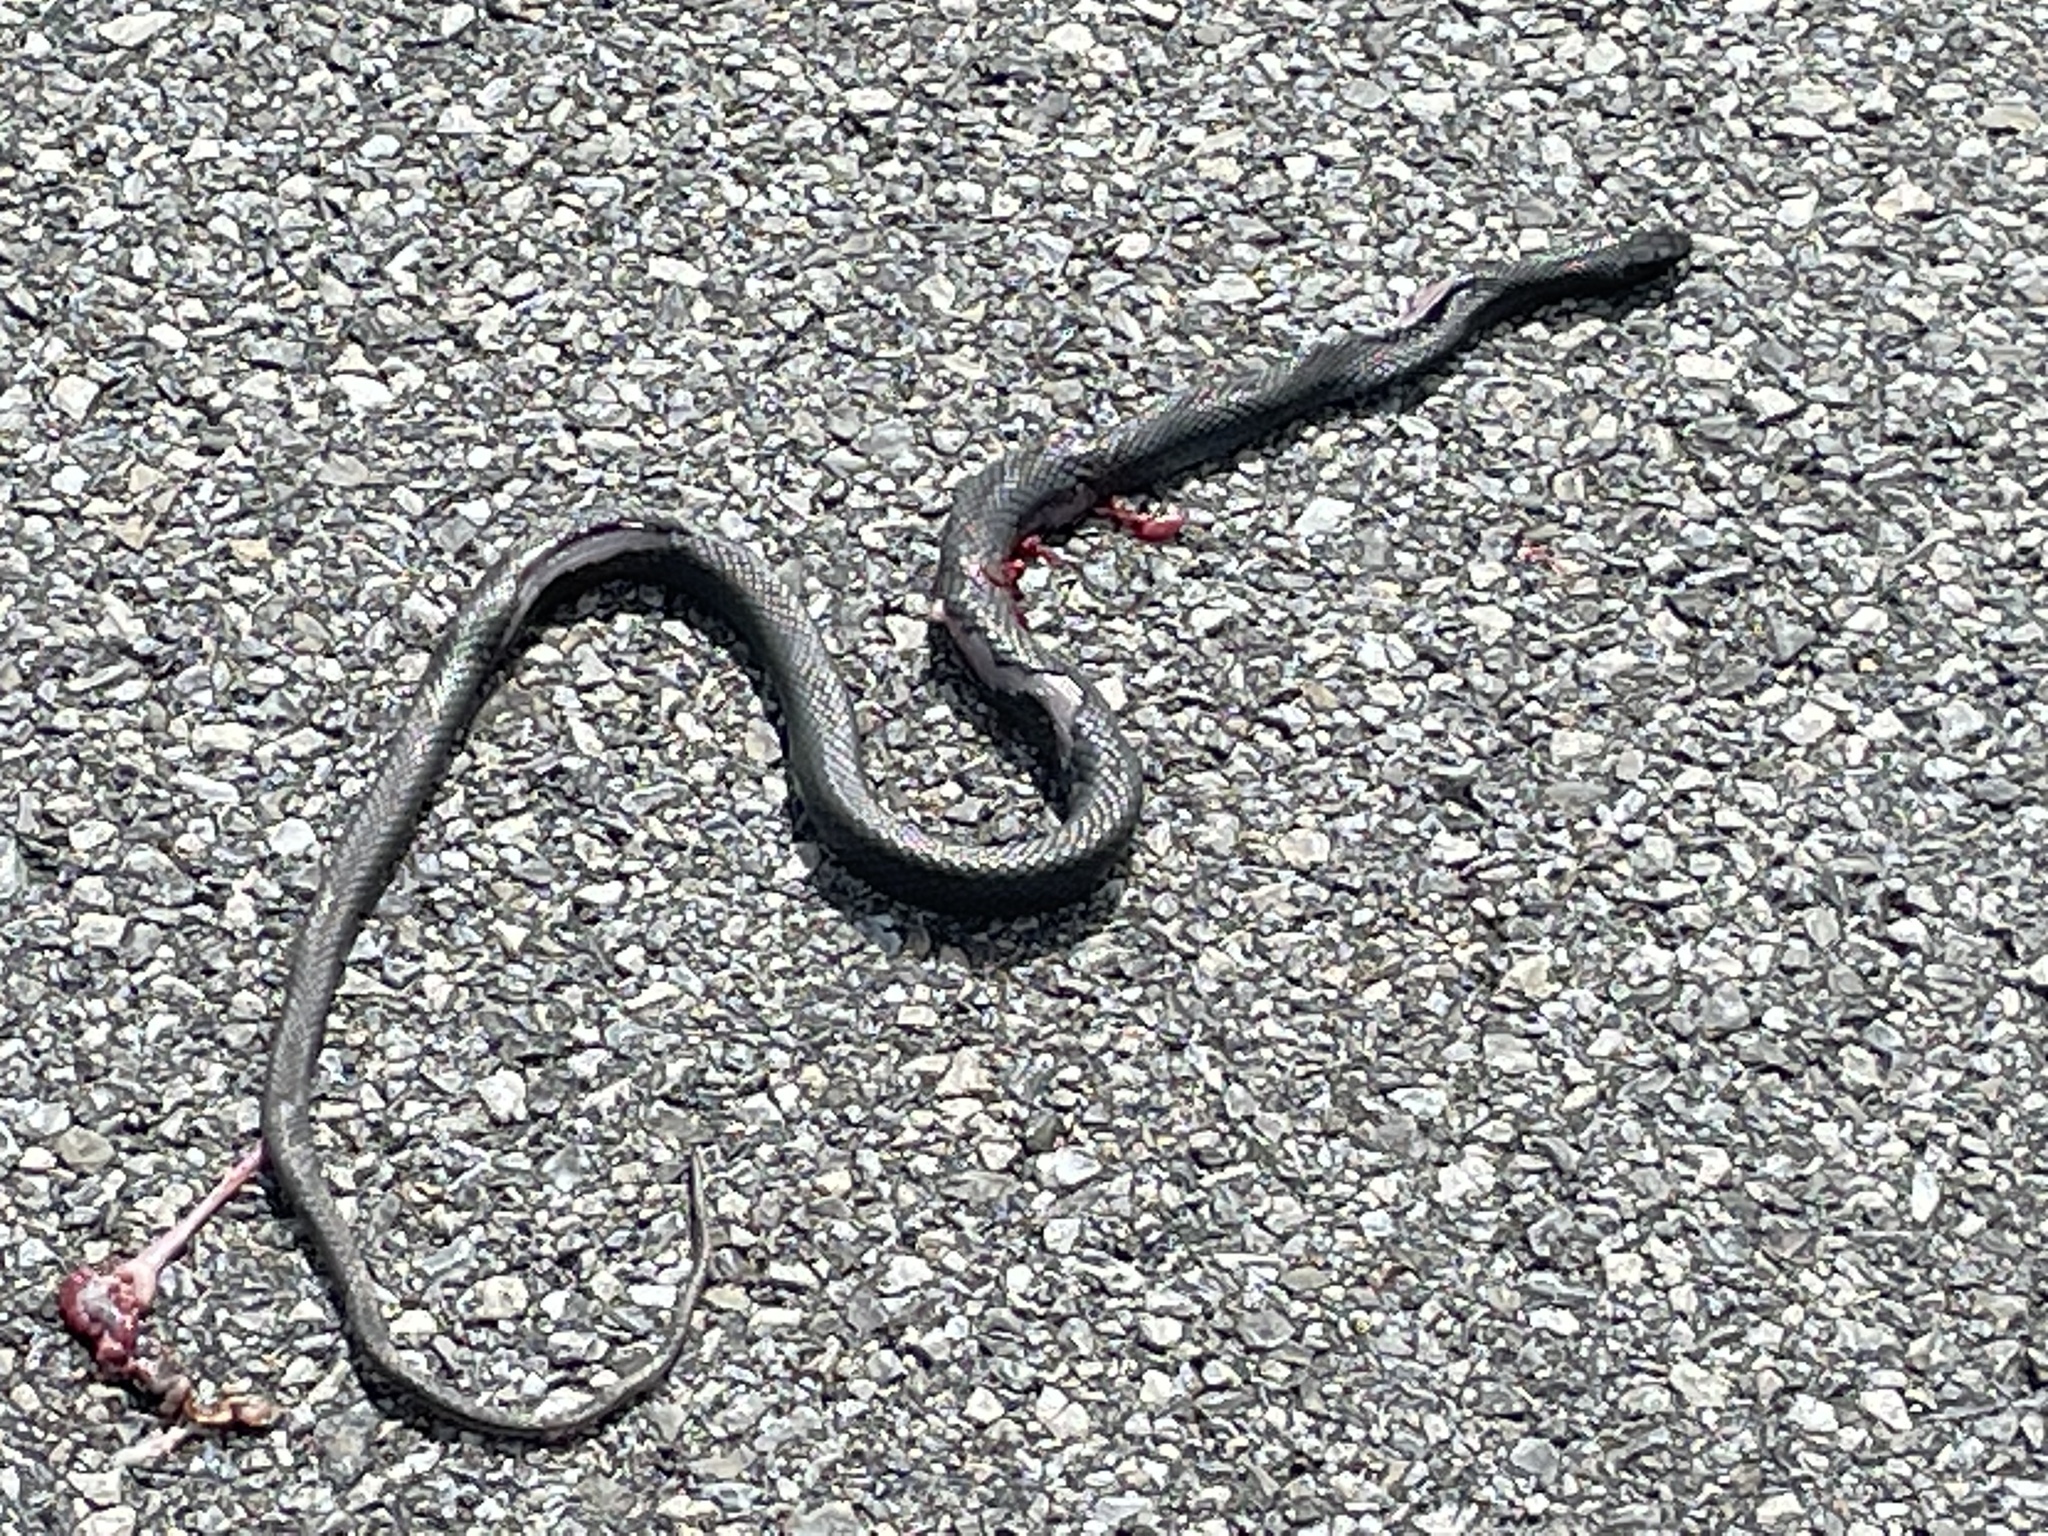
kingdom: Animalia
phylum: Chordata
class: Squamata
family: Colubridae
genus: Coluber
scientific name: Coluber constrictor
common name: Eastern racer
